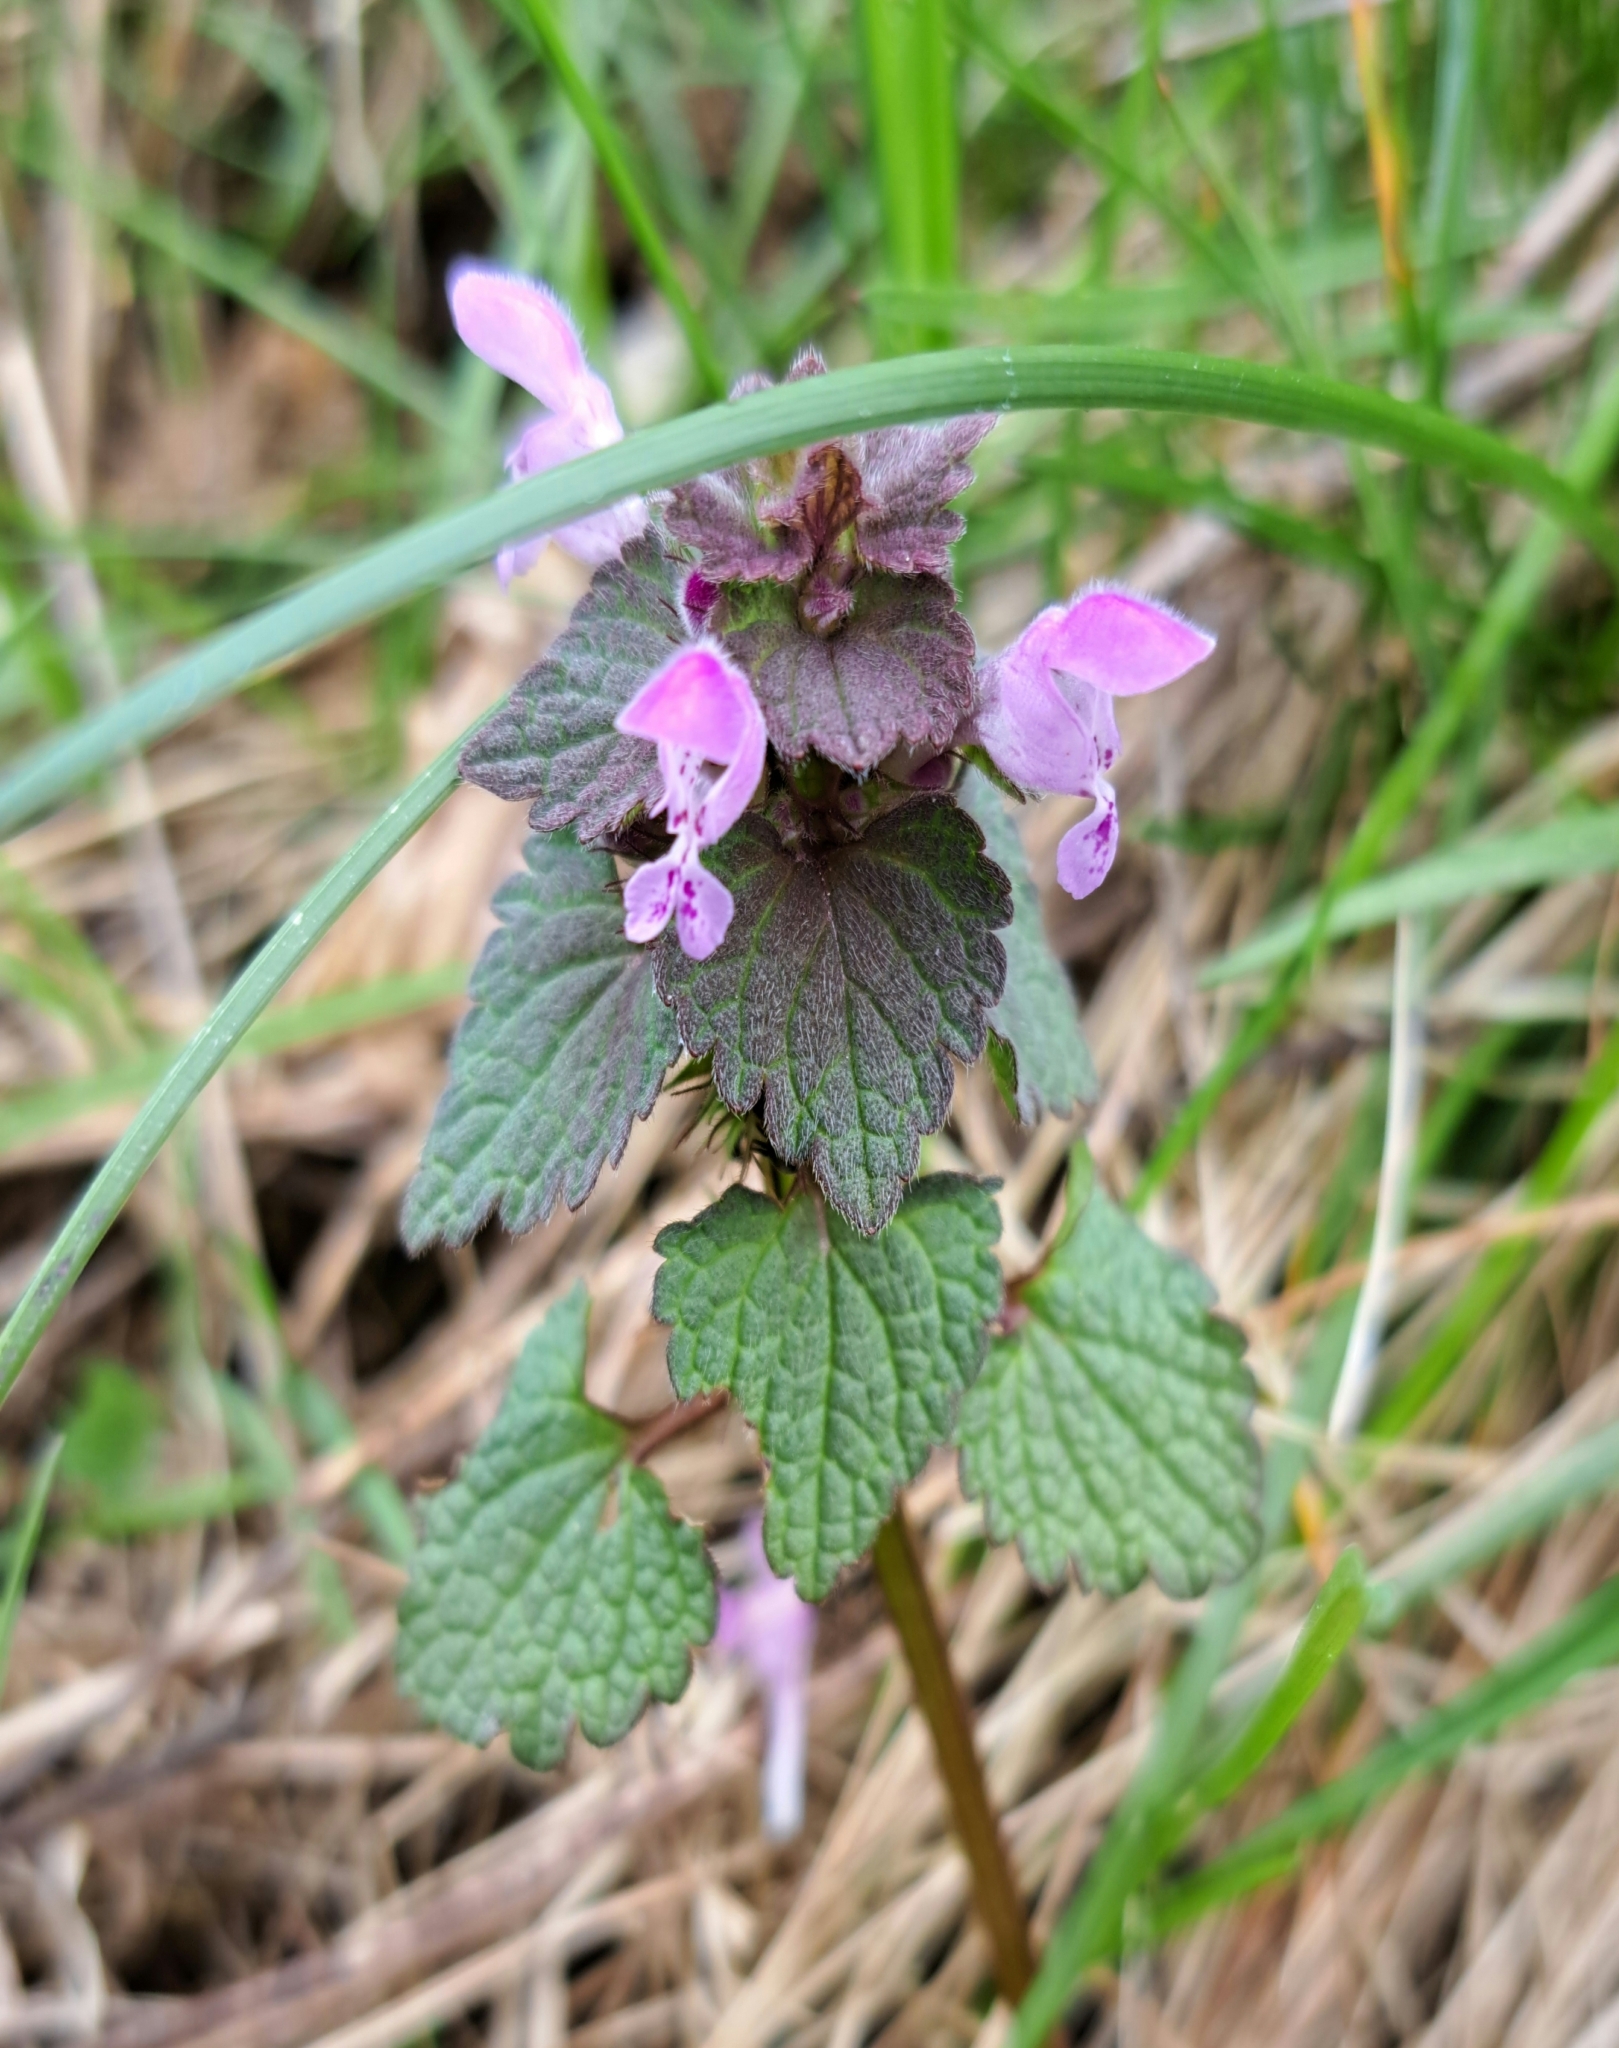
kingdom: Plantae
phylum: Tracheophyta
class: Magnoliopsida
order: Lamiales
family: Lamiaceae
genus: Lamium
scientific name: Lamium purpureum
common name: Red dead-nettle
